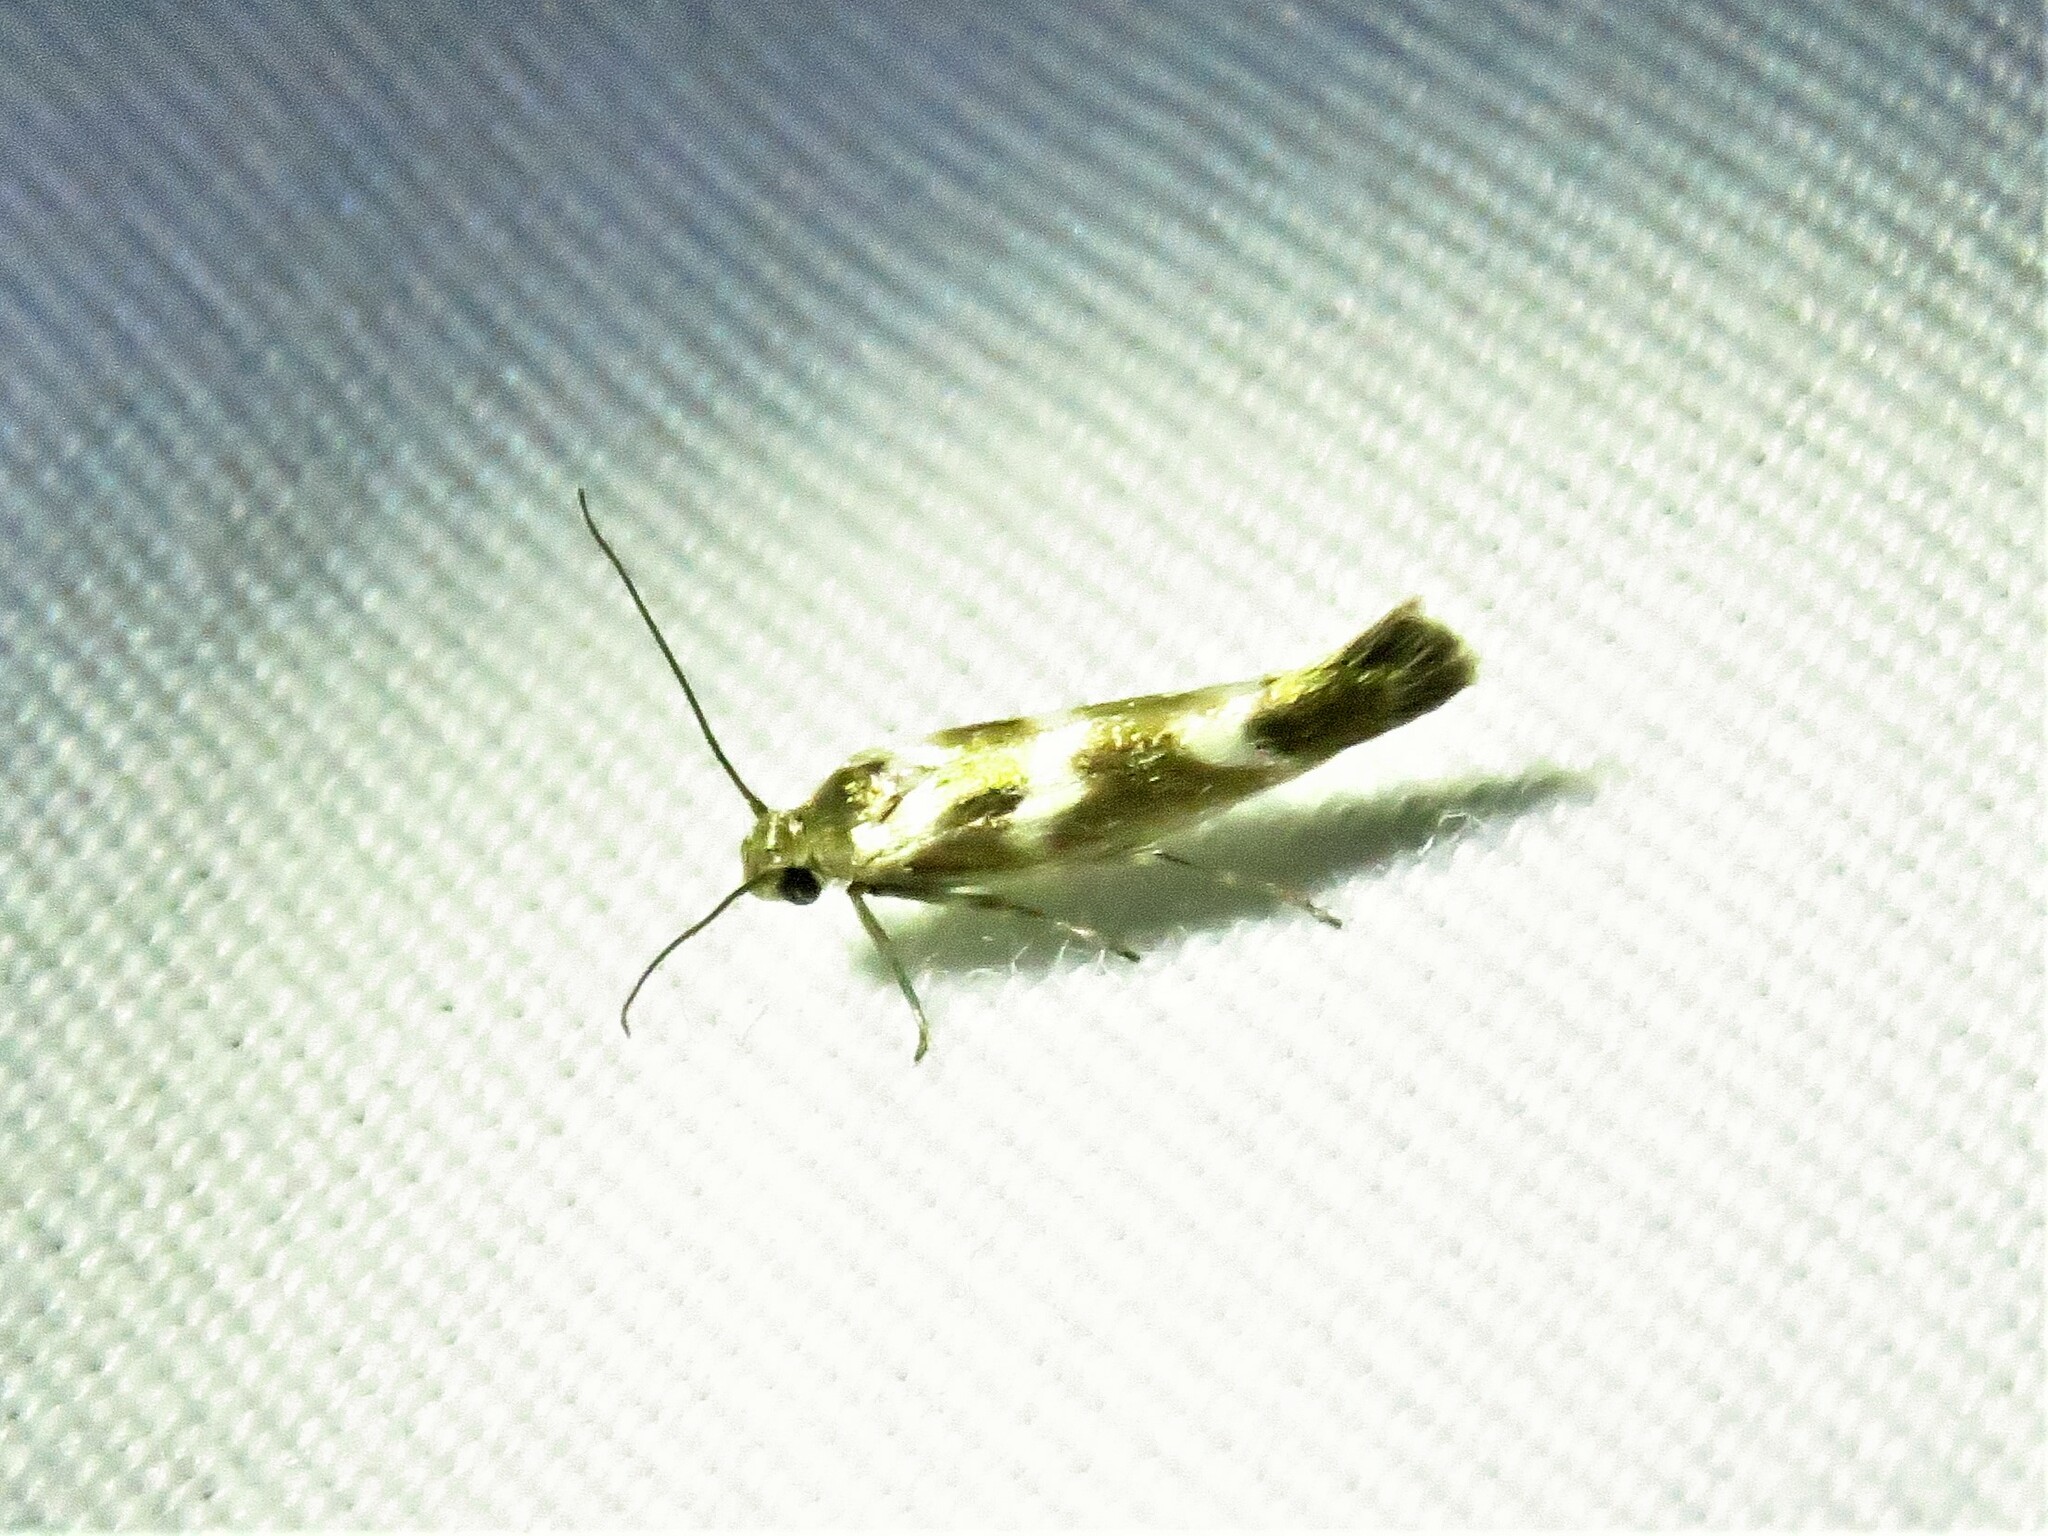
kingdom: Animalia
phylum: Arthropoda
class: Insecta
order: Lepidoptera
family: Scythrididae
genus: Scythris
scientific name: Scythris trivinctella
